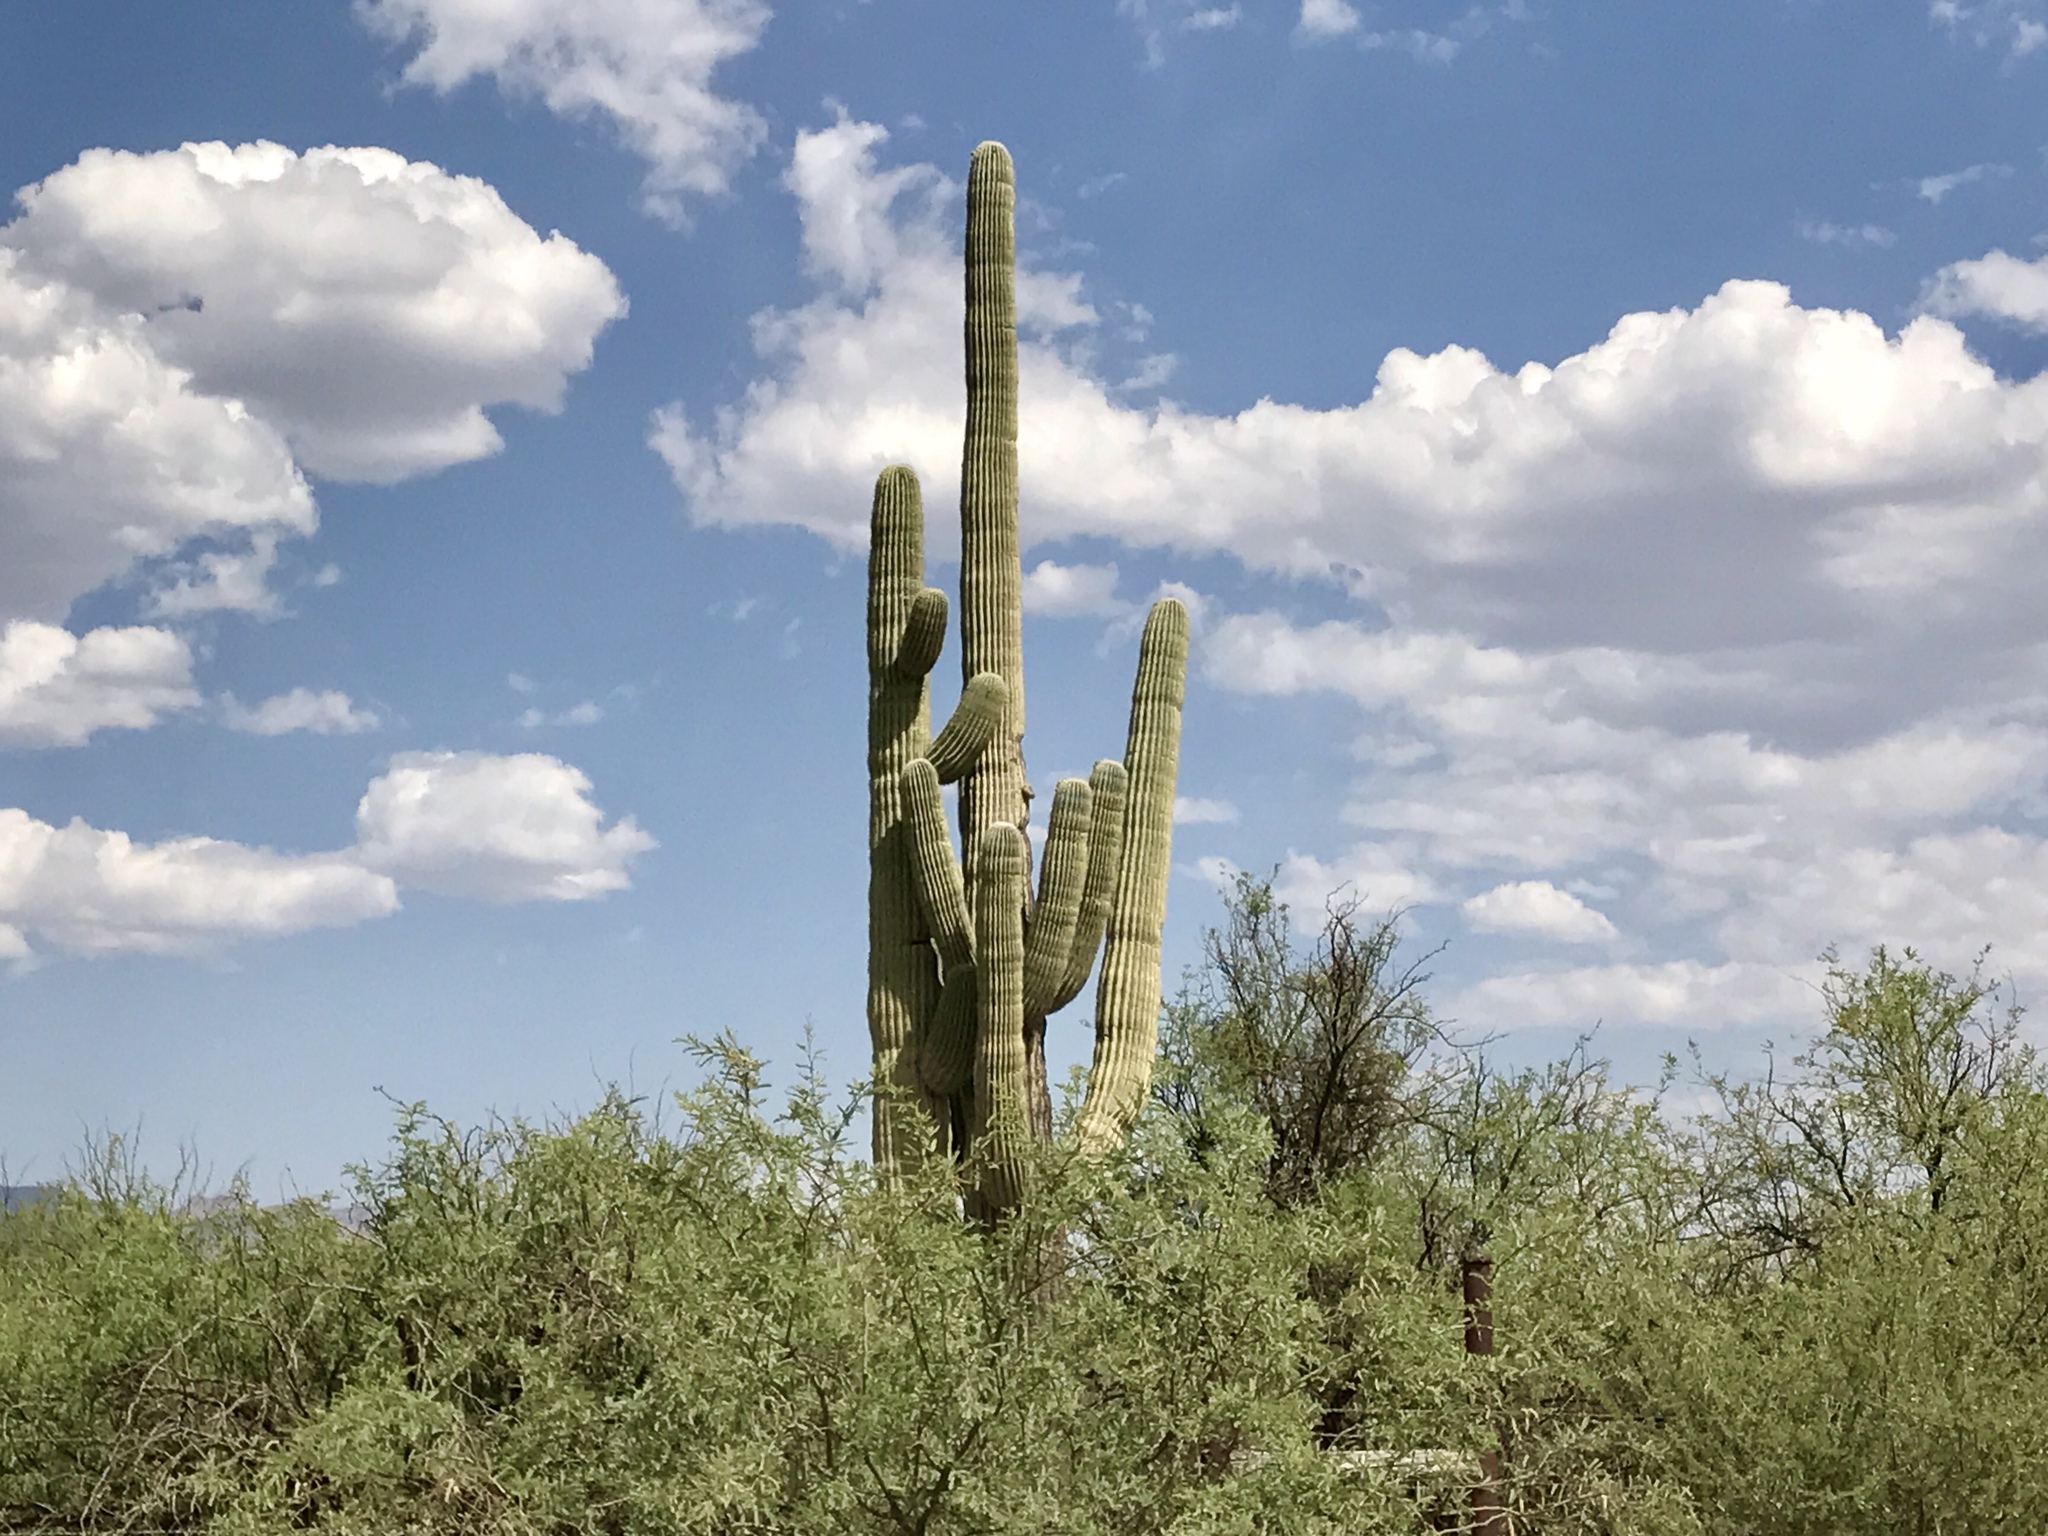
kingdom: Plantae
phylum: Tracheophyta
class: Magnoliopsida
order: Caryophyllales
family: Cactaceae
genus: Carnegiea
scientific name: Carnegiea gigantea
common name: Saguaro
